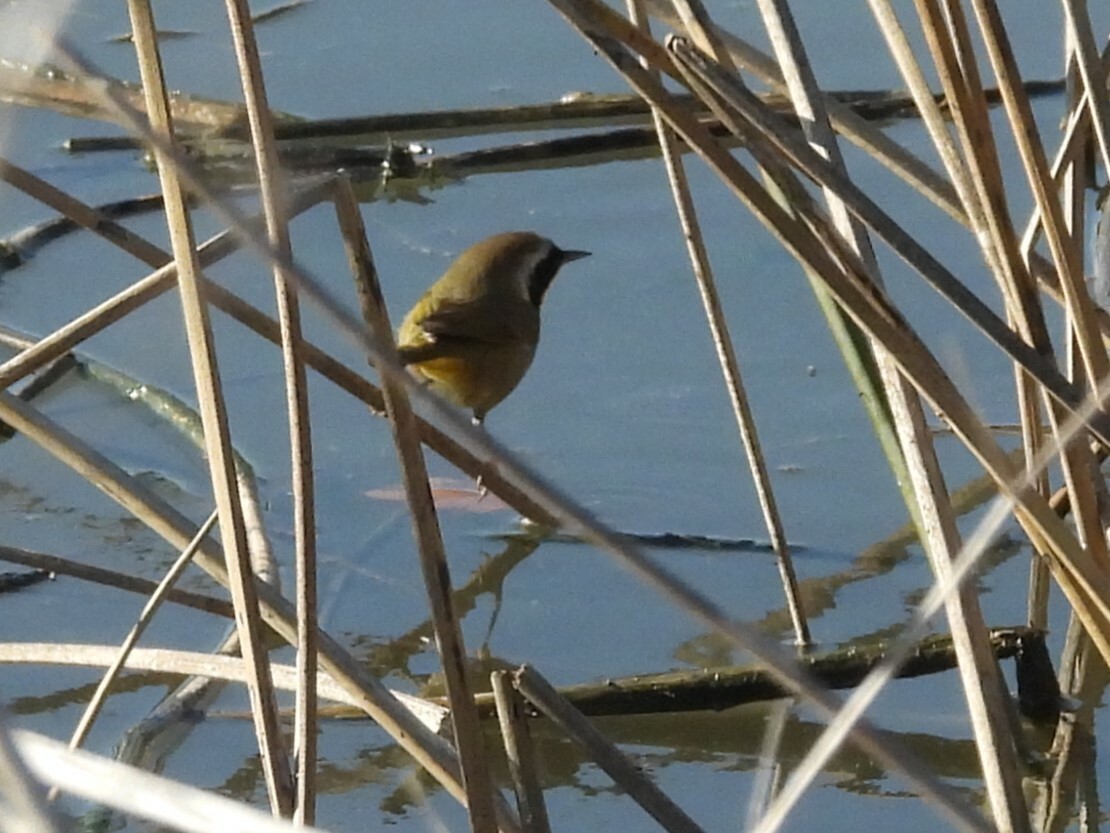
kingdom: Animalia
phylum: Chordata
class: Aves
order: Passeriformes
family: Parulidae
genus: Geothlypis
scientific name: Geothlypis trichas
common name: Common yellowthroat
